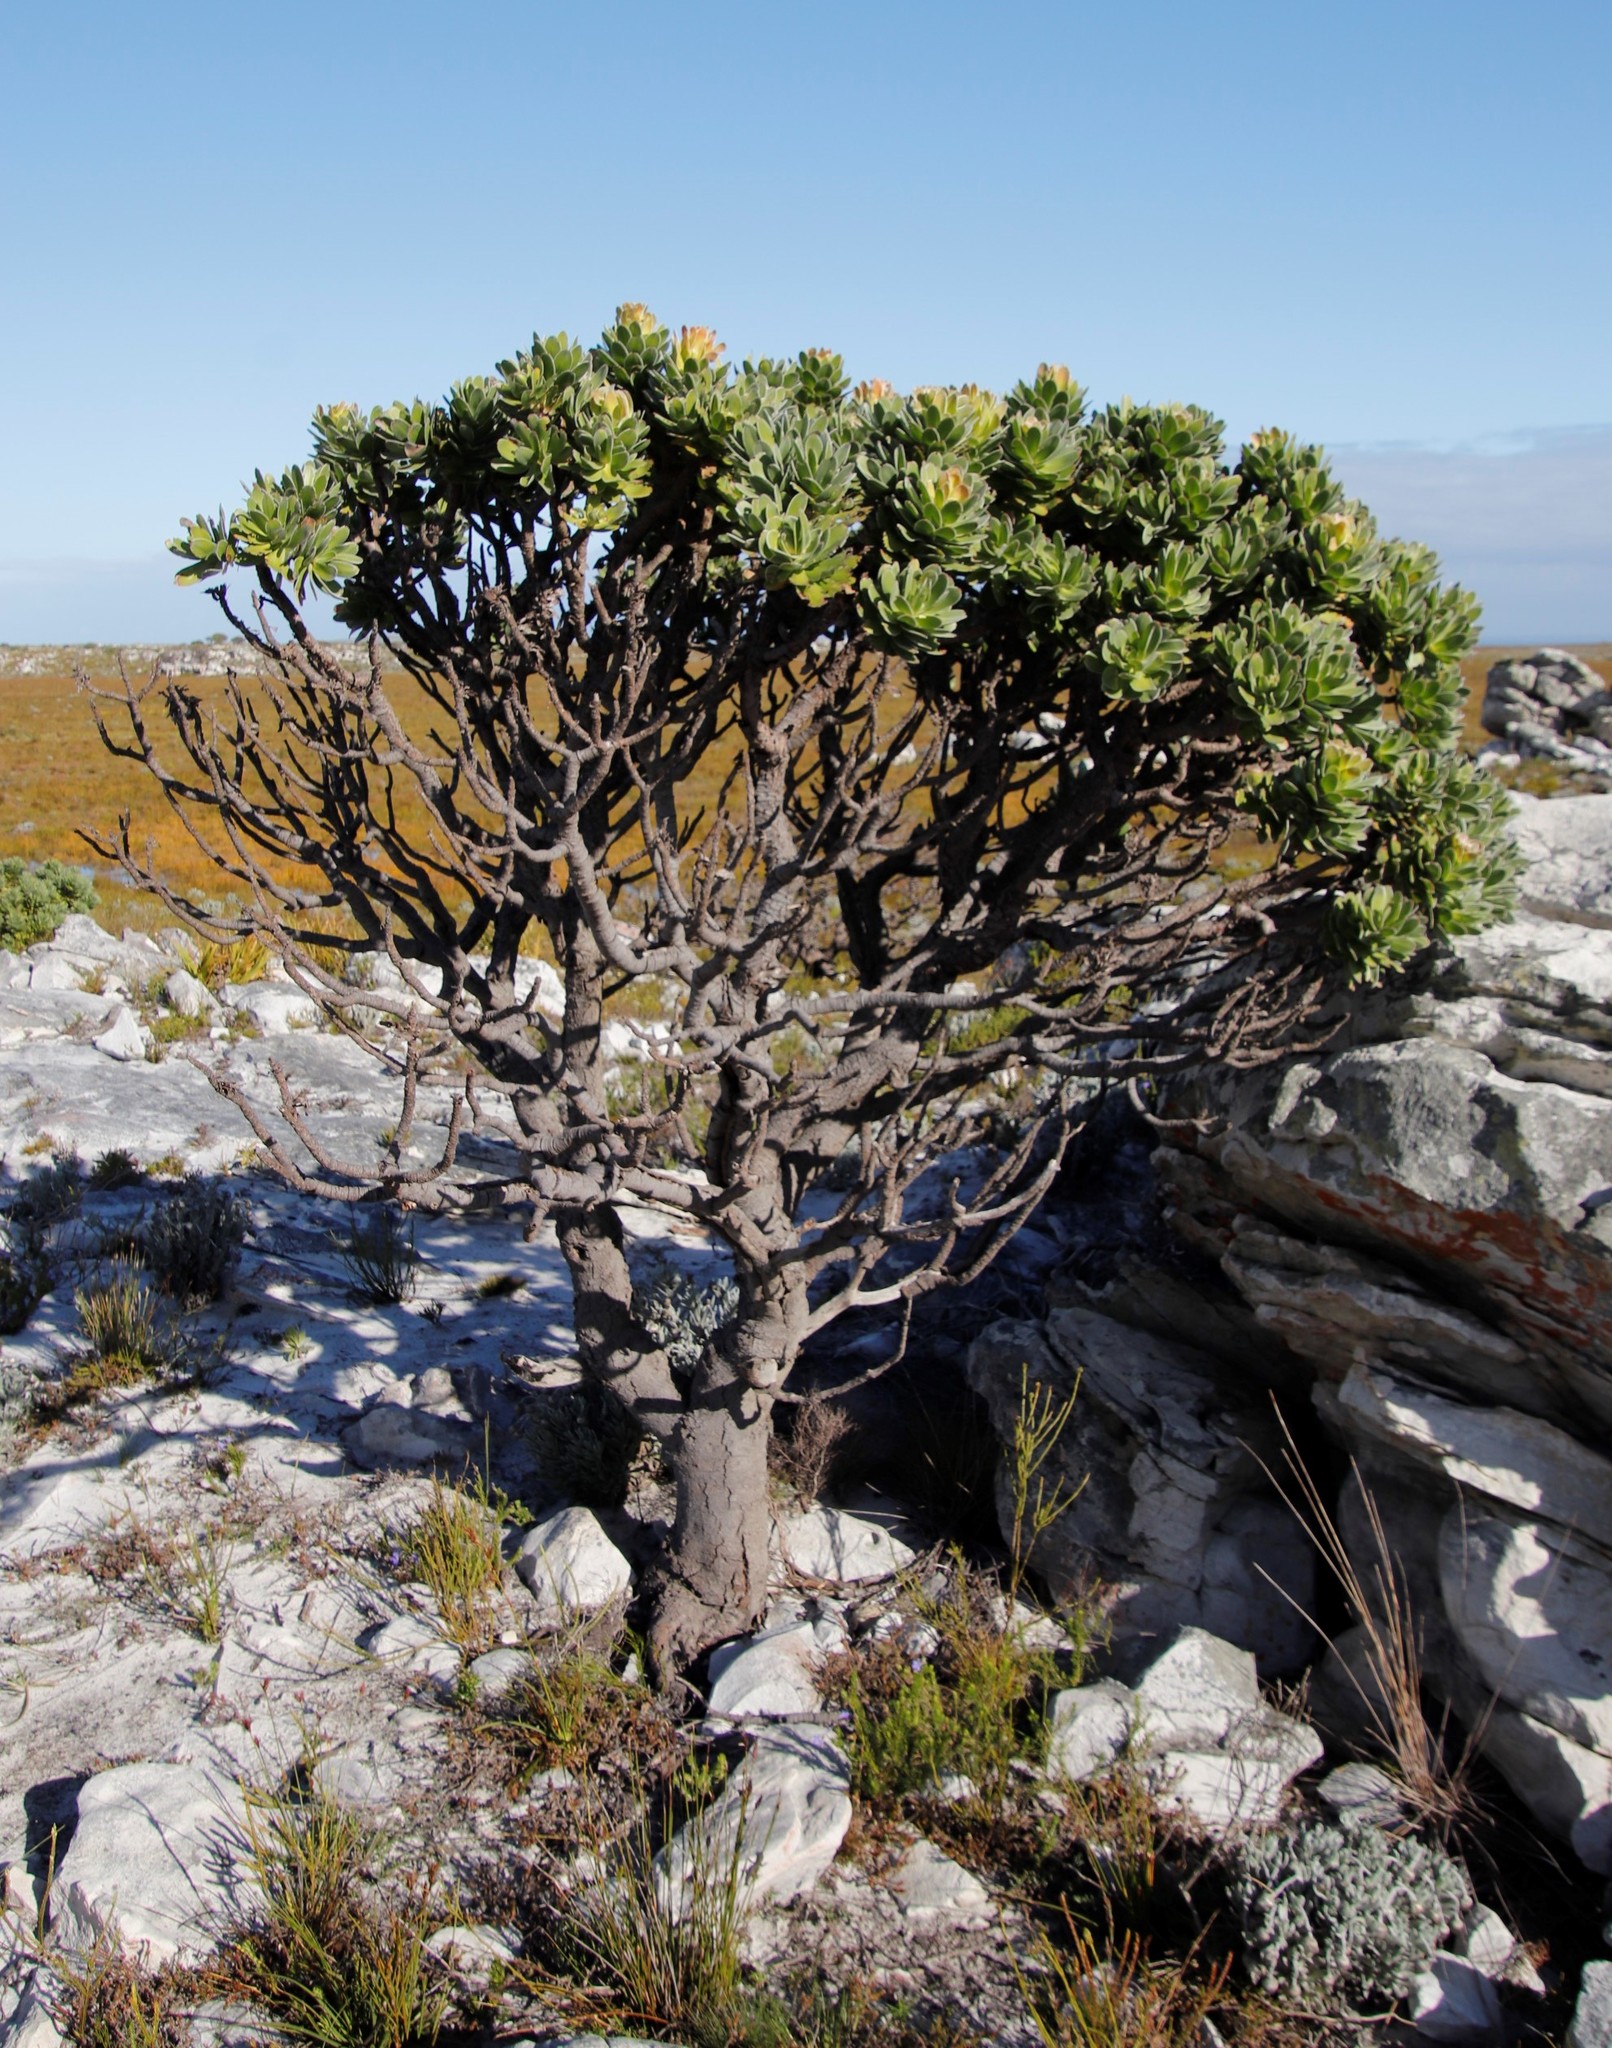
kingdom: Plantae
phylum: Tracheophyta
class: Magnoliopsida
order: Proteales
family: Proteaceae
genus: Mimetes
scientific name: Mimetes fimbriifolius
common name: Fringed bottlebrush
